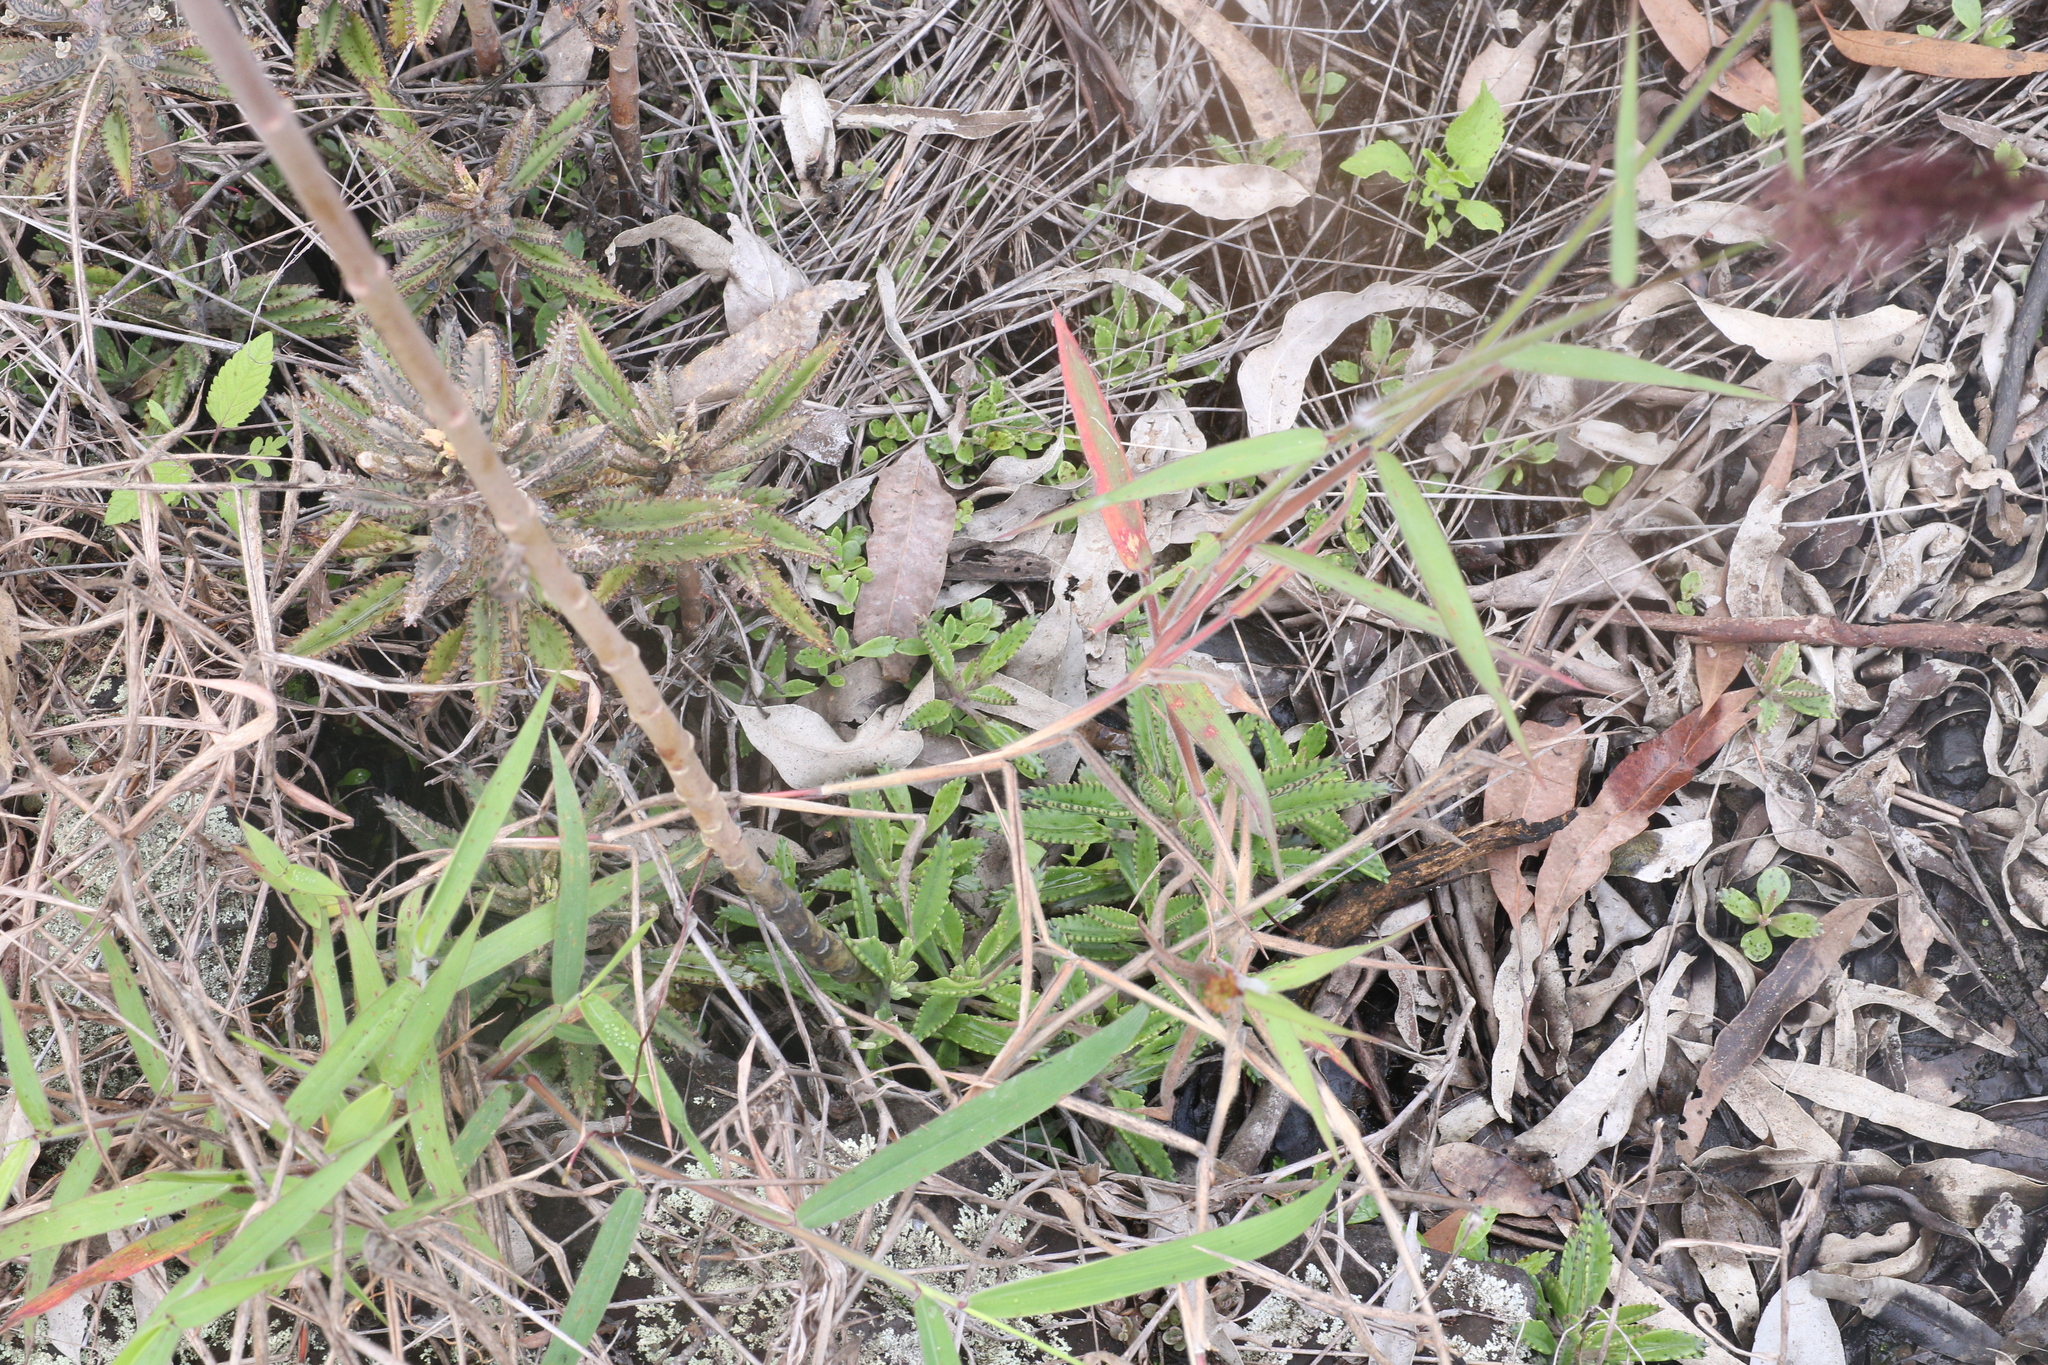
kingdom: Plantae
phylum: Tracheophyta
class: Magnoliopsida
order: Saxifragales
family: Crassulaceae
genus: Kalanchoe
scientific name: Kalanchoe houghtonii
